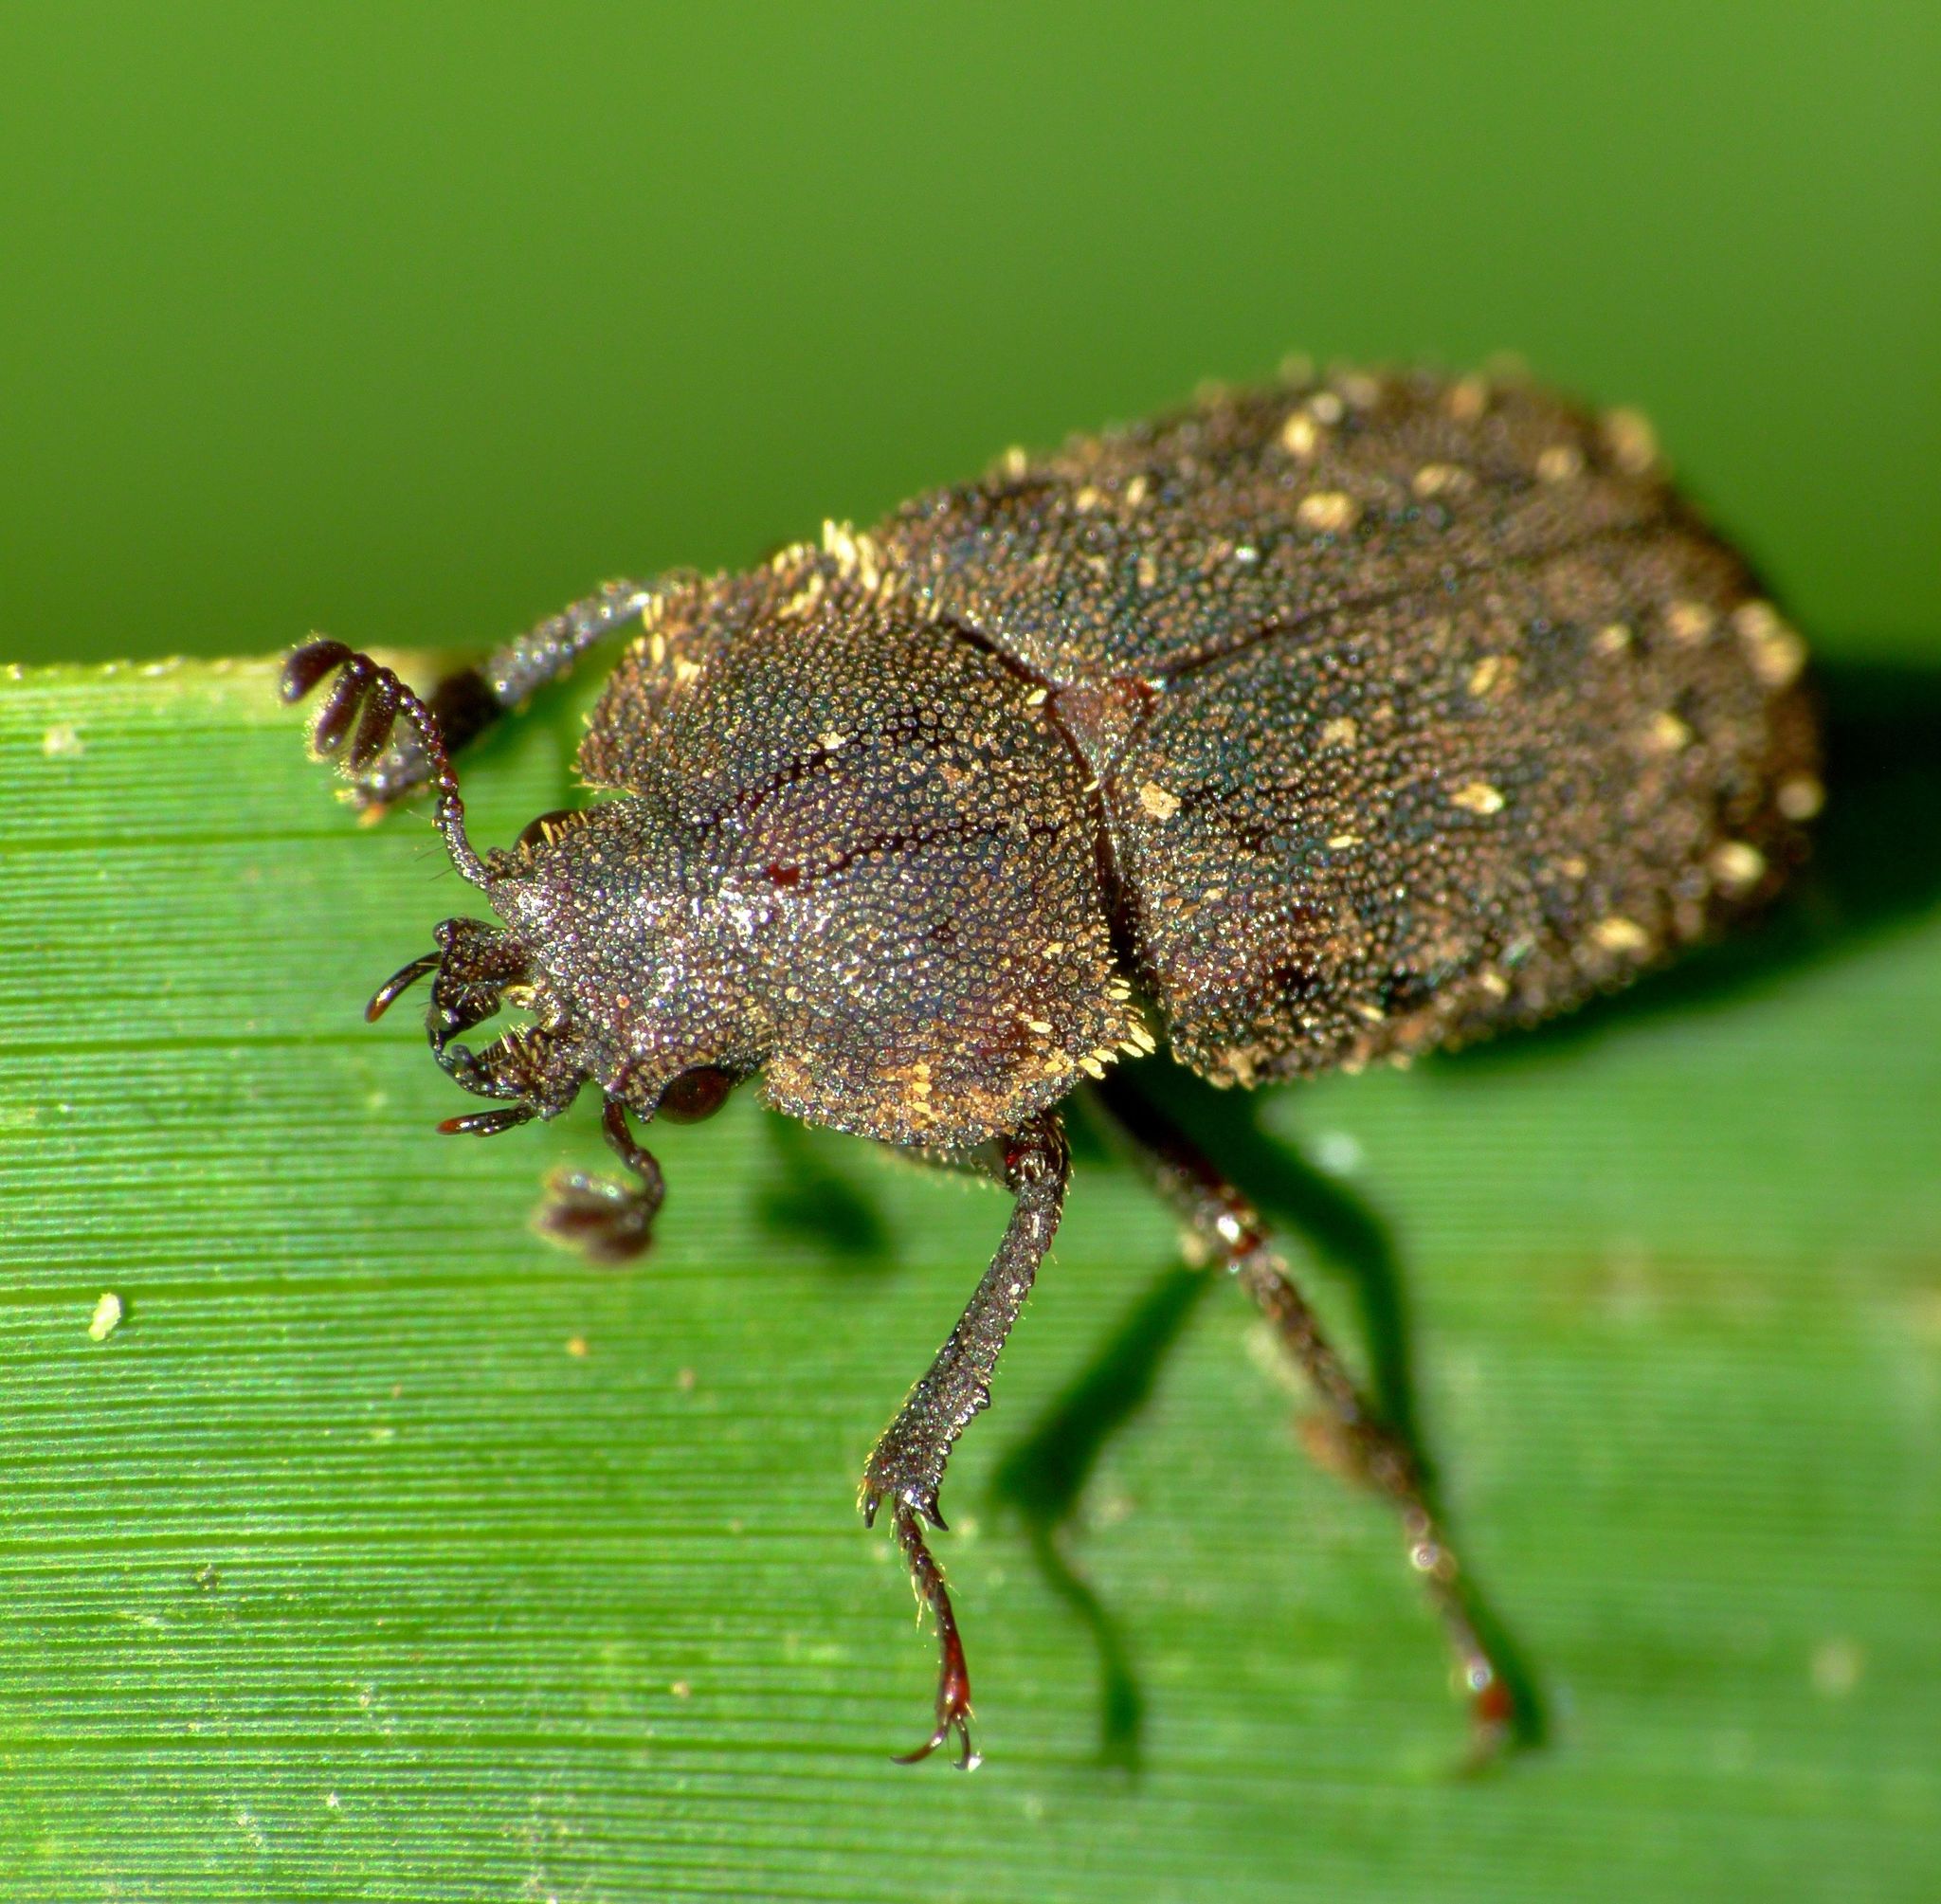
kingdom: Animalia
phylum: Arthropoda
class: Insecta
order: Coleoptera
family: Lucanidae
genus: Mitophyllus
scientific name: Mitophyllus fusculus
